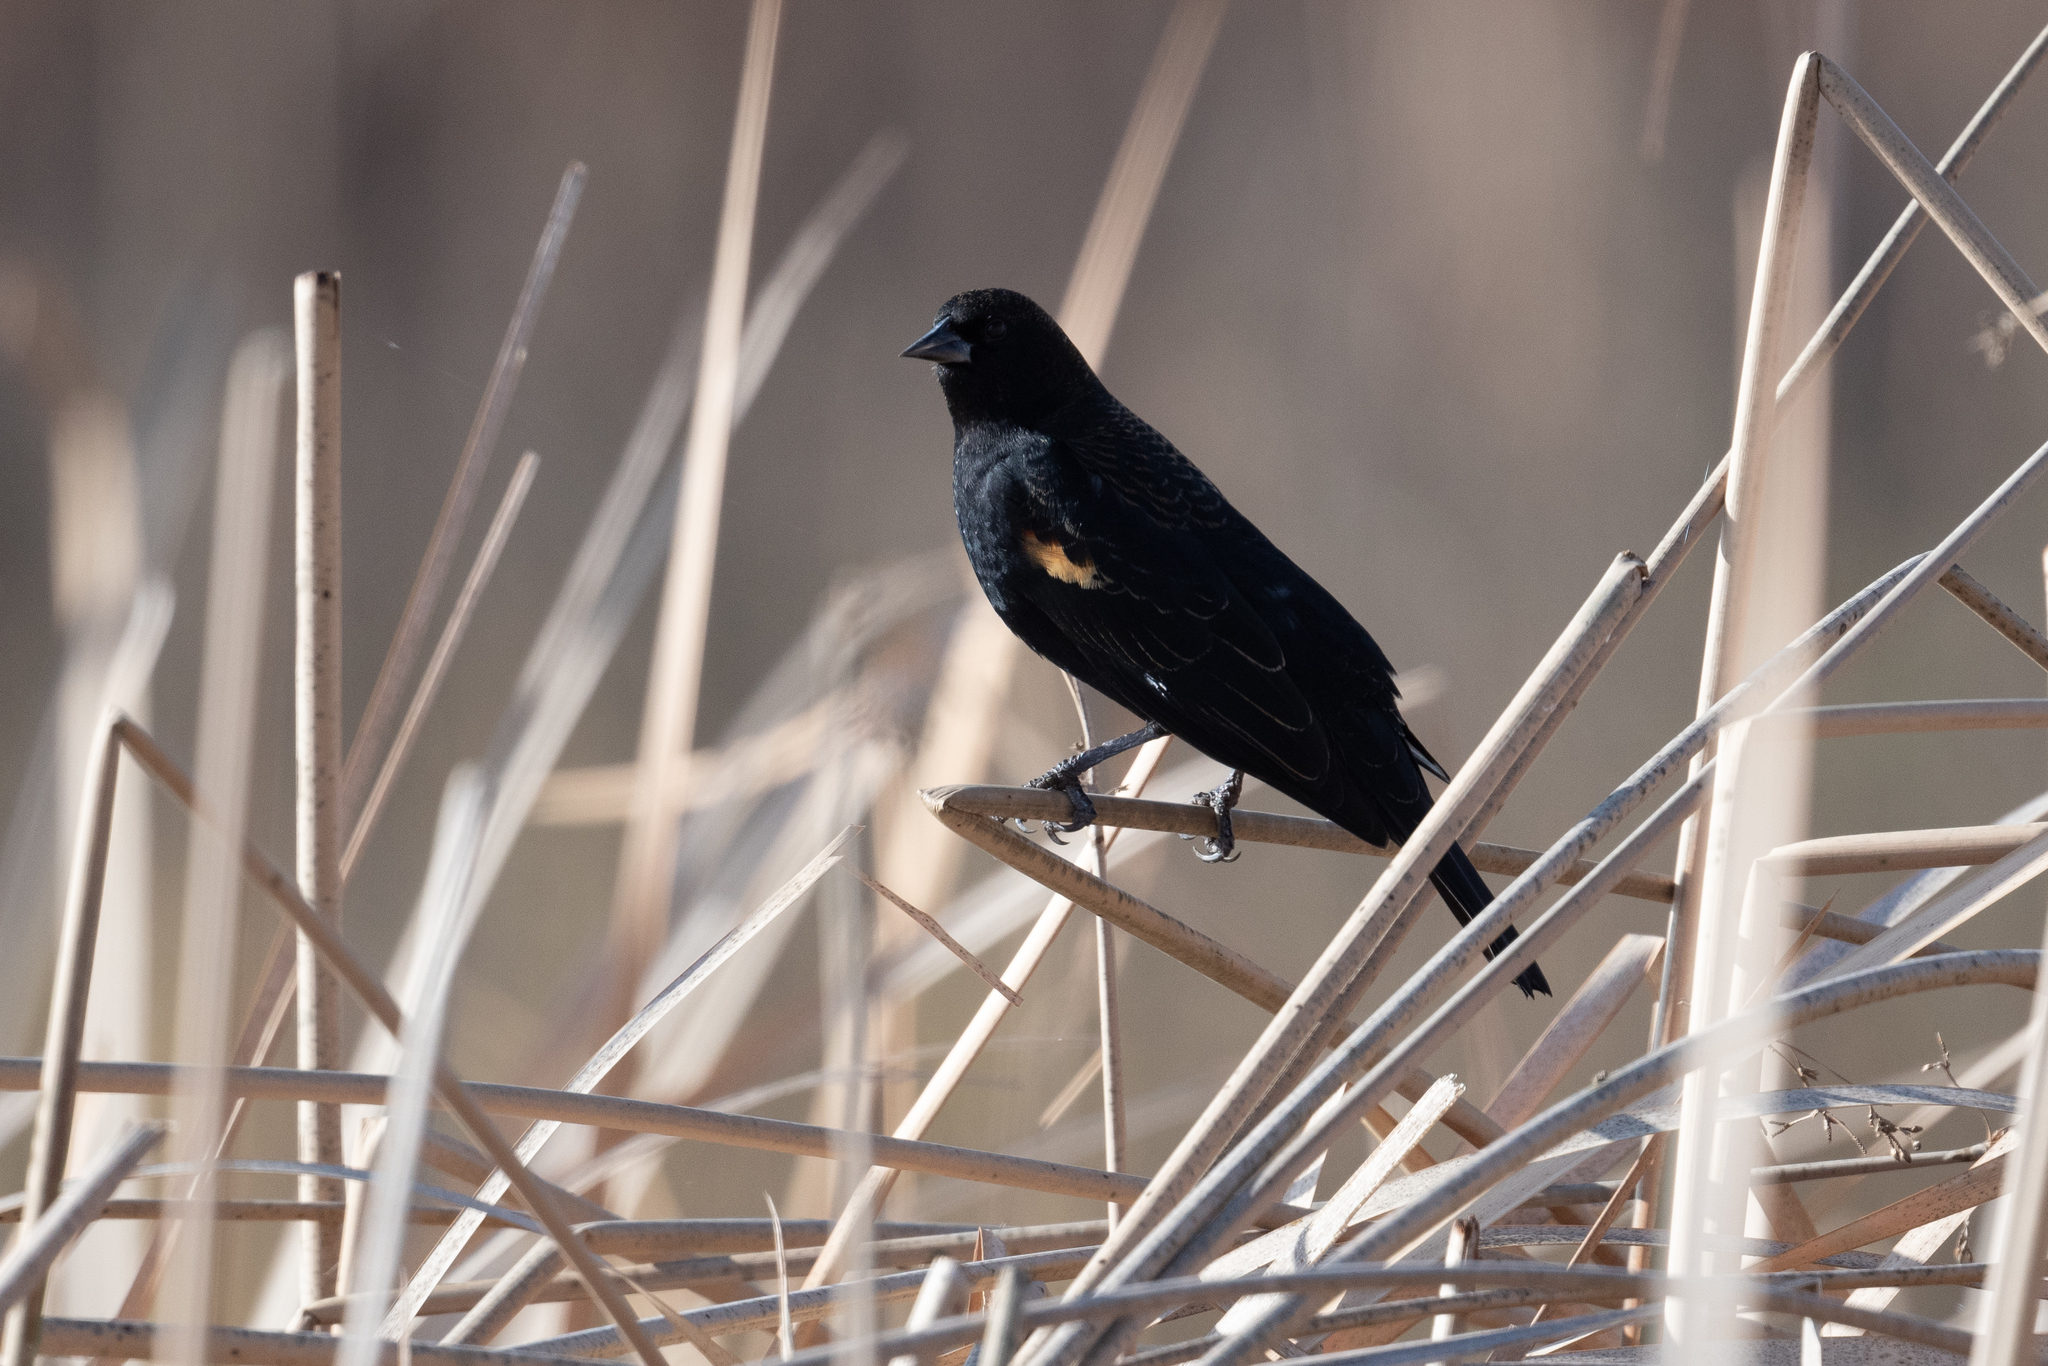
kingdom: Animalia
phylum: Chordata
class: Aves
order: Passeriformes
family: Icteridae
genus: Agelaius
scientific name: Agelaius phoeniceus
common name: Red-winged blackbird
